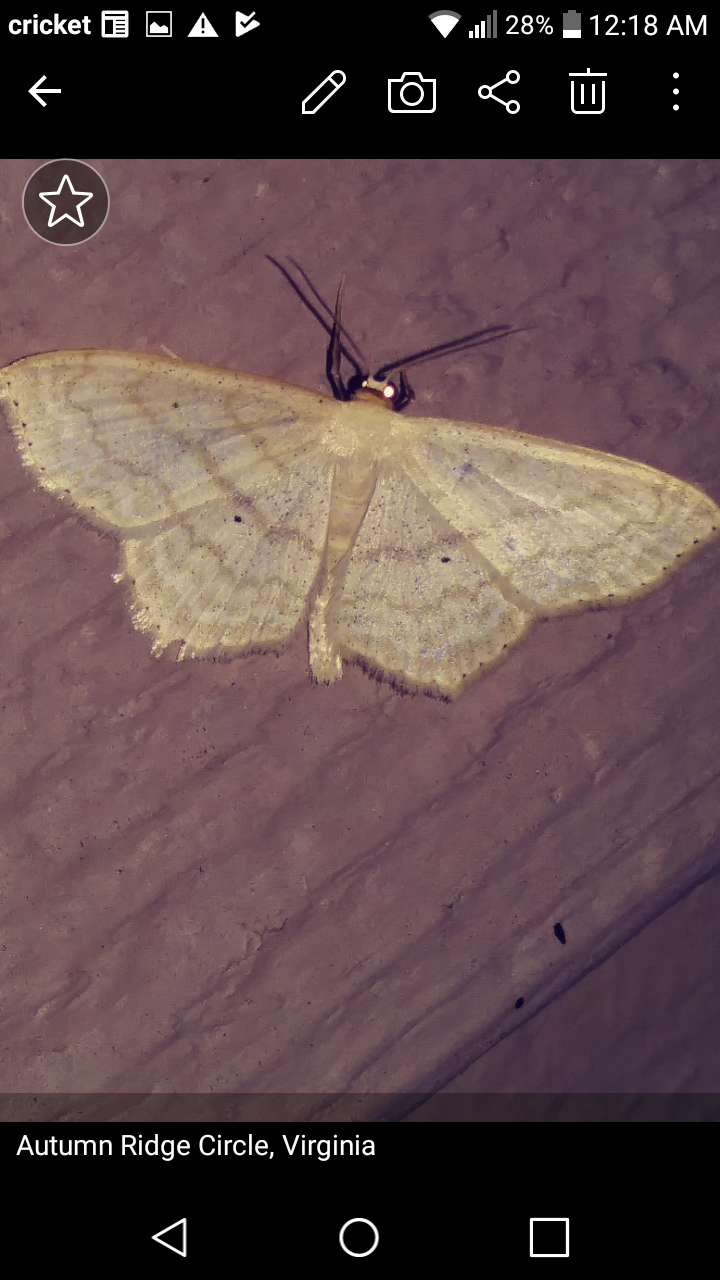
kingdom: Animalia
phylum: Arthropoda
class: Insecta
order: Lepidoptera
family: Geometridae
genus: Scopula
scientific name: Scopula limboundata
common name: Large lace border
